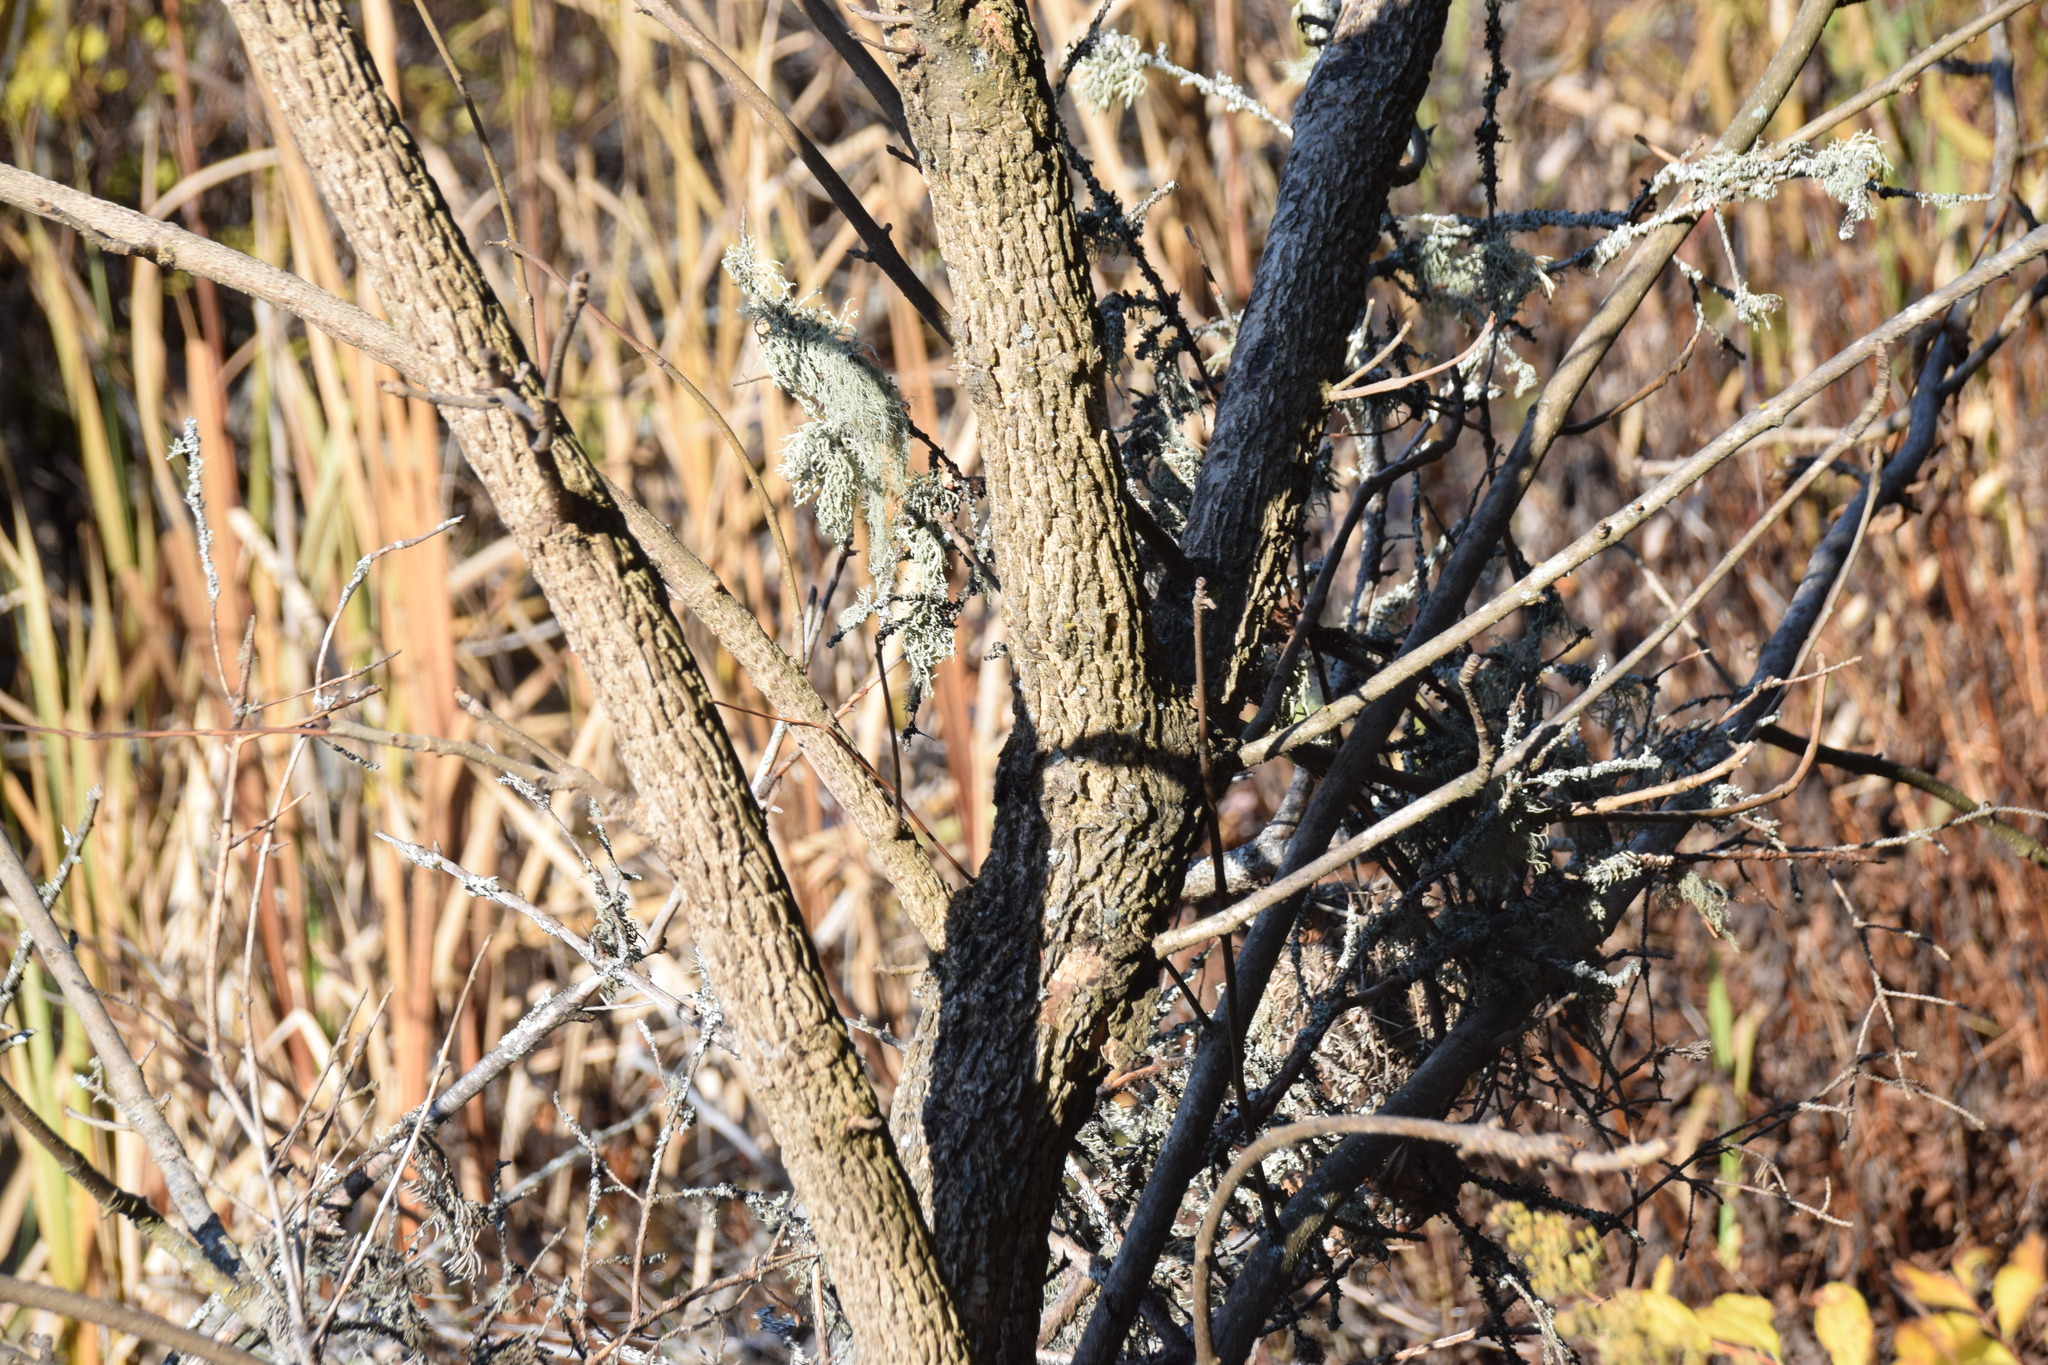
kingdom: Plantae
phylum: Tracheophyta
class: Magnoliopsida
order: Lamiales
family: Oleaceae
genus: Fraxinus
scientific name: Fraxinus nigra
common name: Black ash
